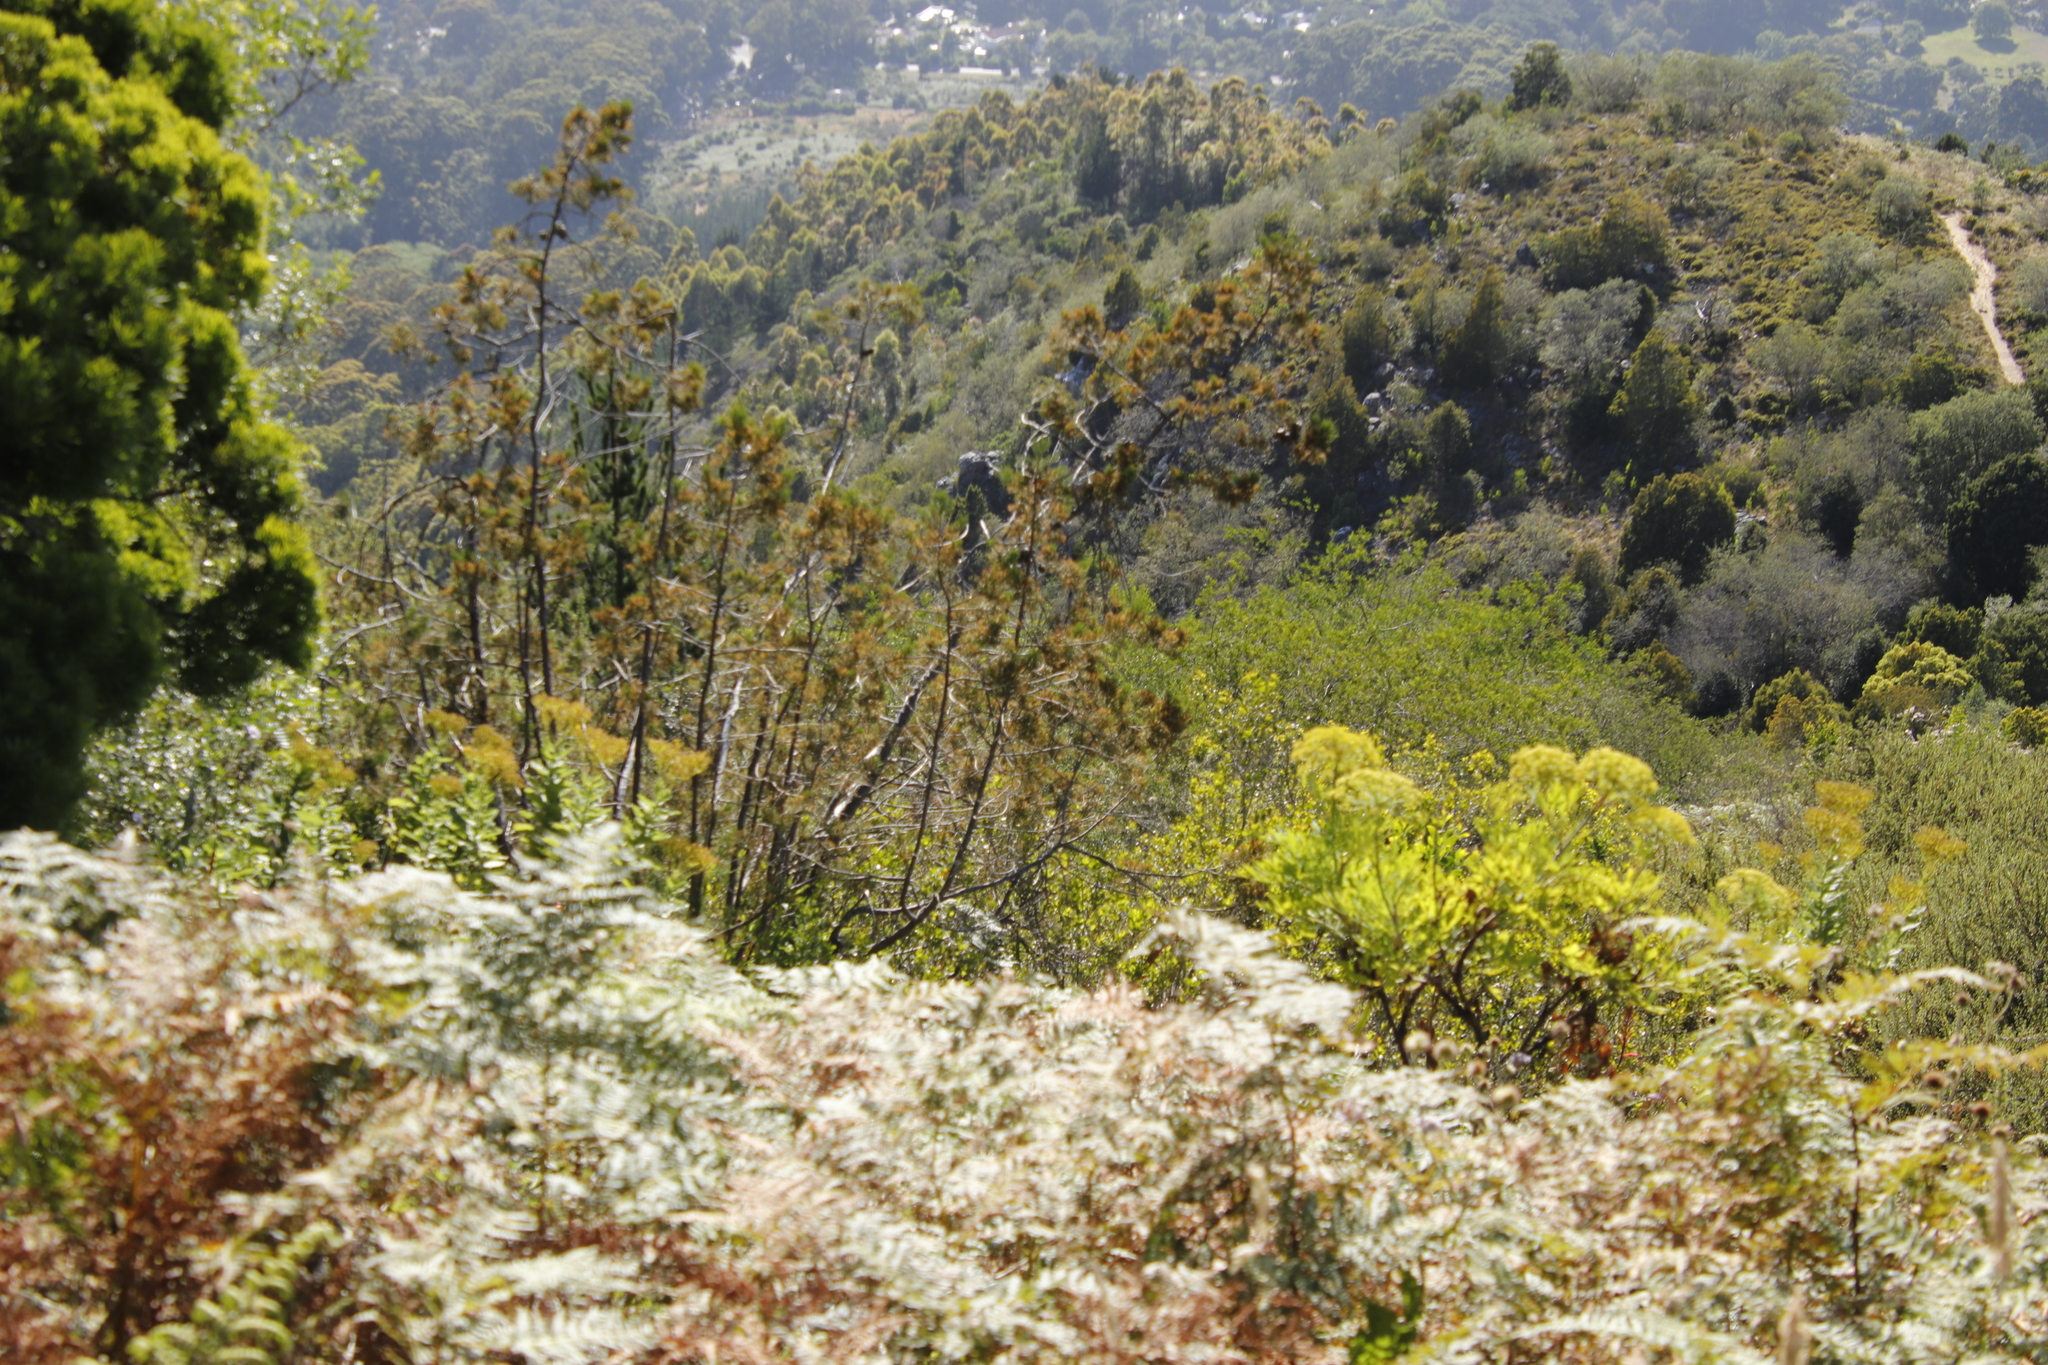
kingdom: Plantae
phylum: Tracheophyta
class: Pinopsida
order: Pinales
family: Cupressaceae
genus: Widdringtonia
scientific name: Widdringtonia nodiflora
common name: Cape cypress
